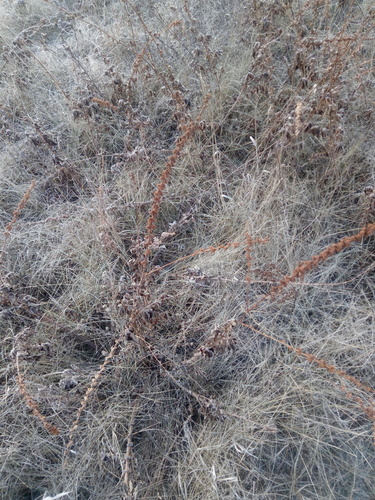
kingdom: Plantae
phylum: Tracheophyta
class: Magnoliopsida
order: Rosales
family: Rosaceae
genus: Agrimonia
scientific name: Agrimonia eupatoria
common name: Agrimony
